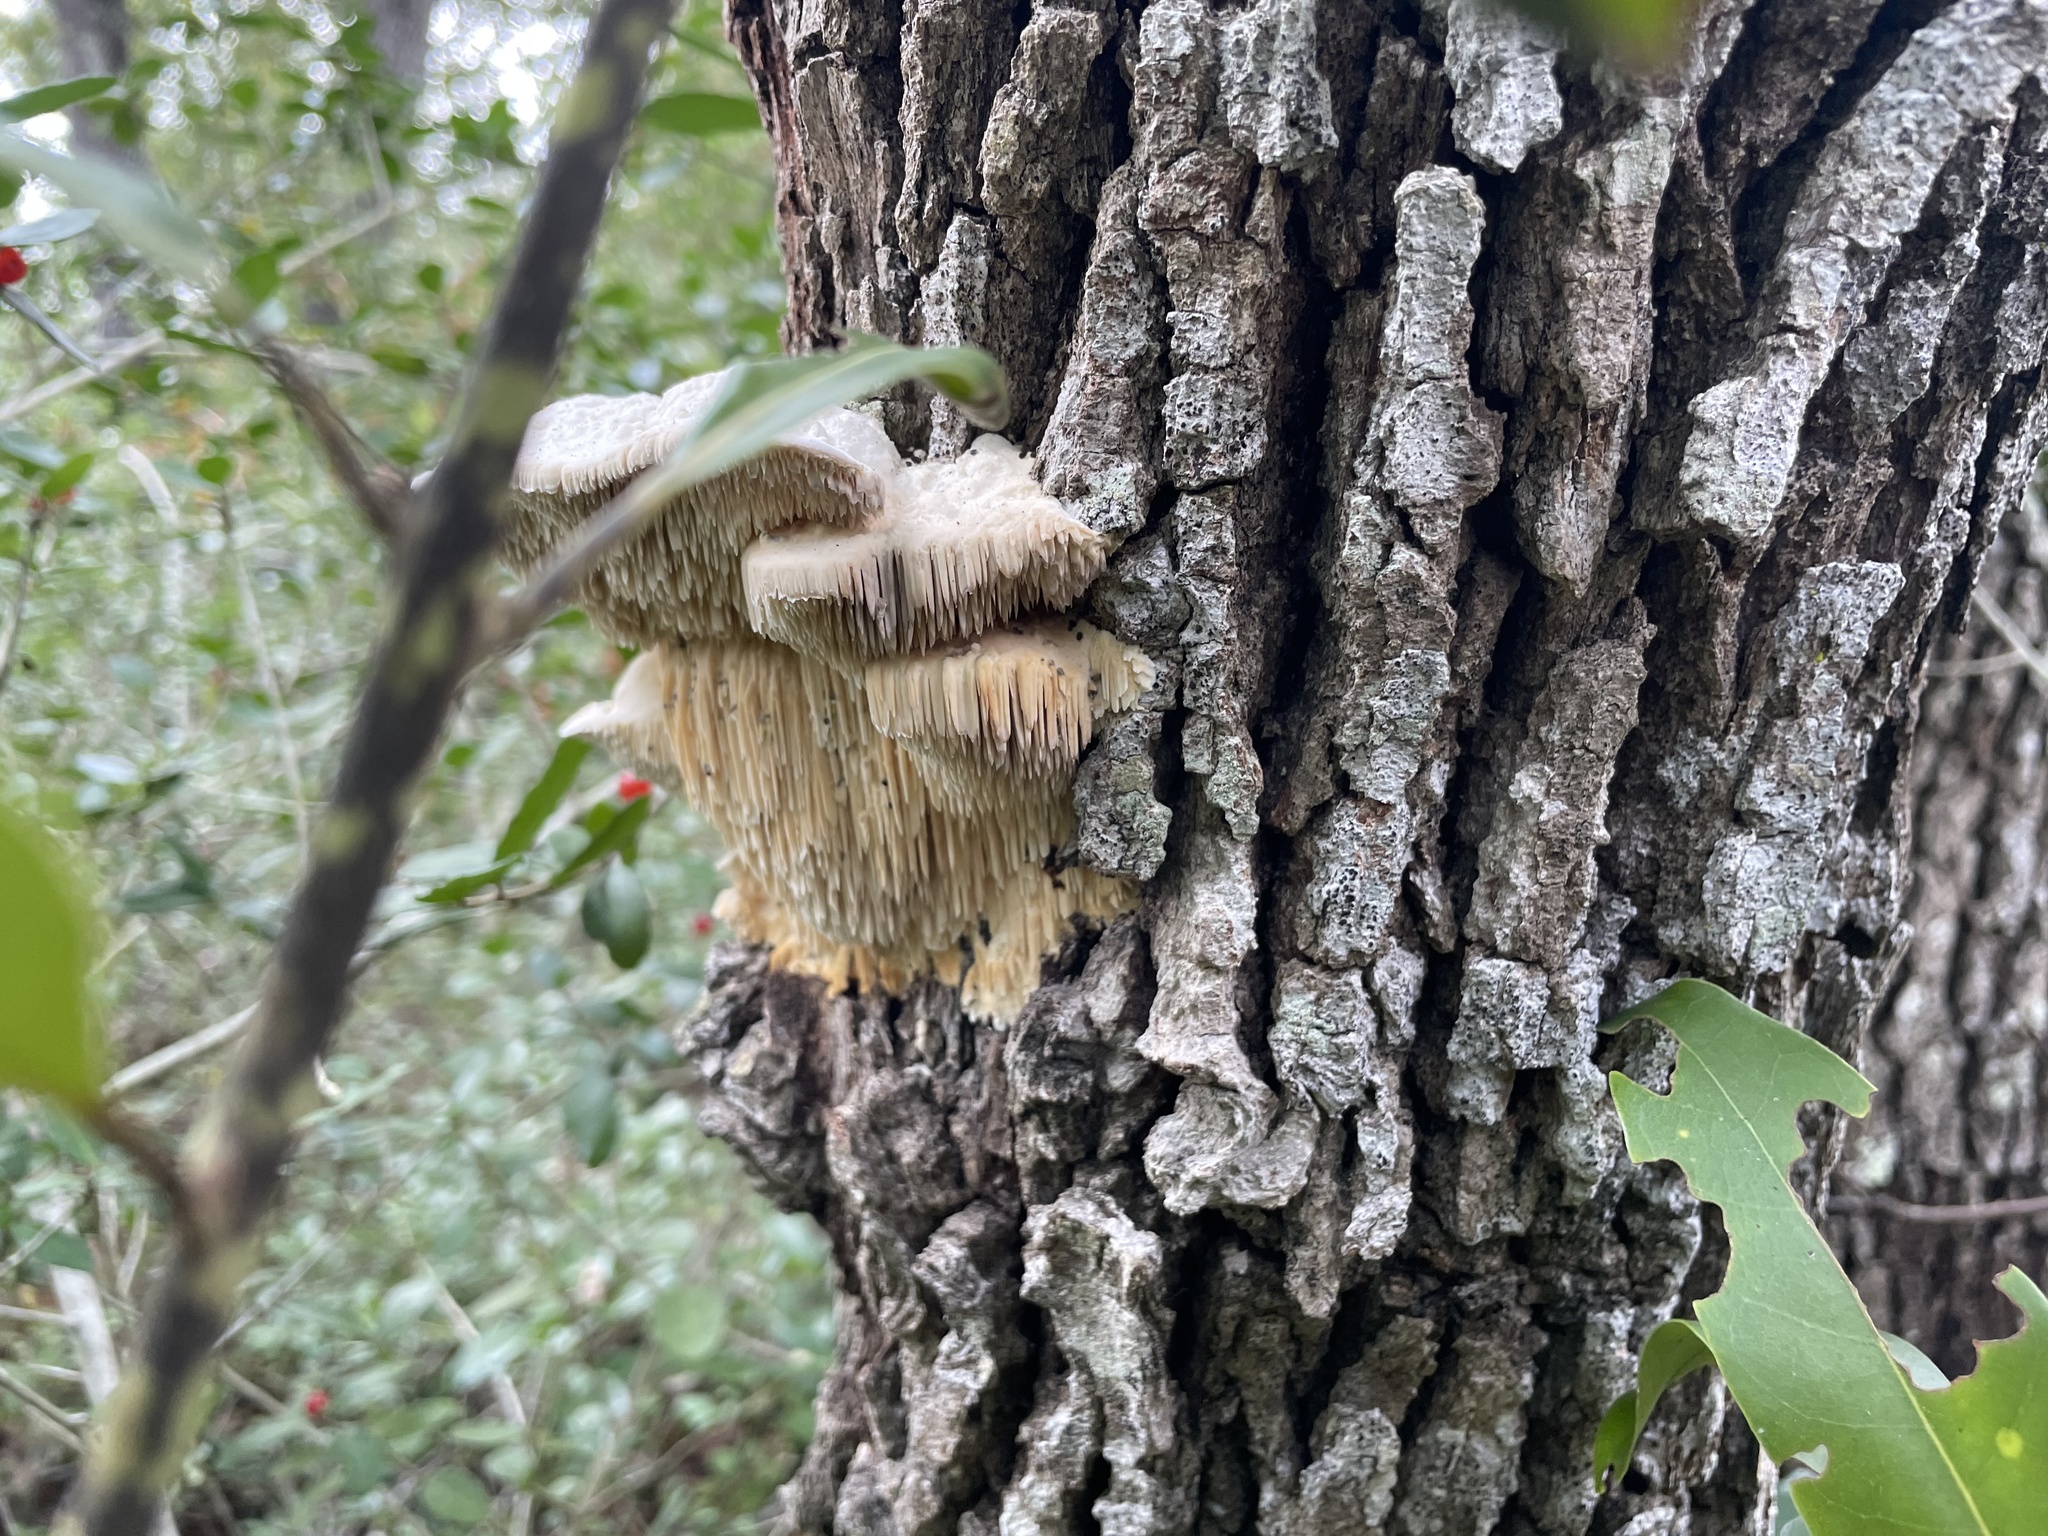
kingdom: Fungi
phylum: Basidiomycota
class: Agaricomycetes
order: Polyporales
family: Meruliaceae
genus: Irpiciporus
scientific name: Irpiciporus pachyodon
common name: Marshmallow polypore
